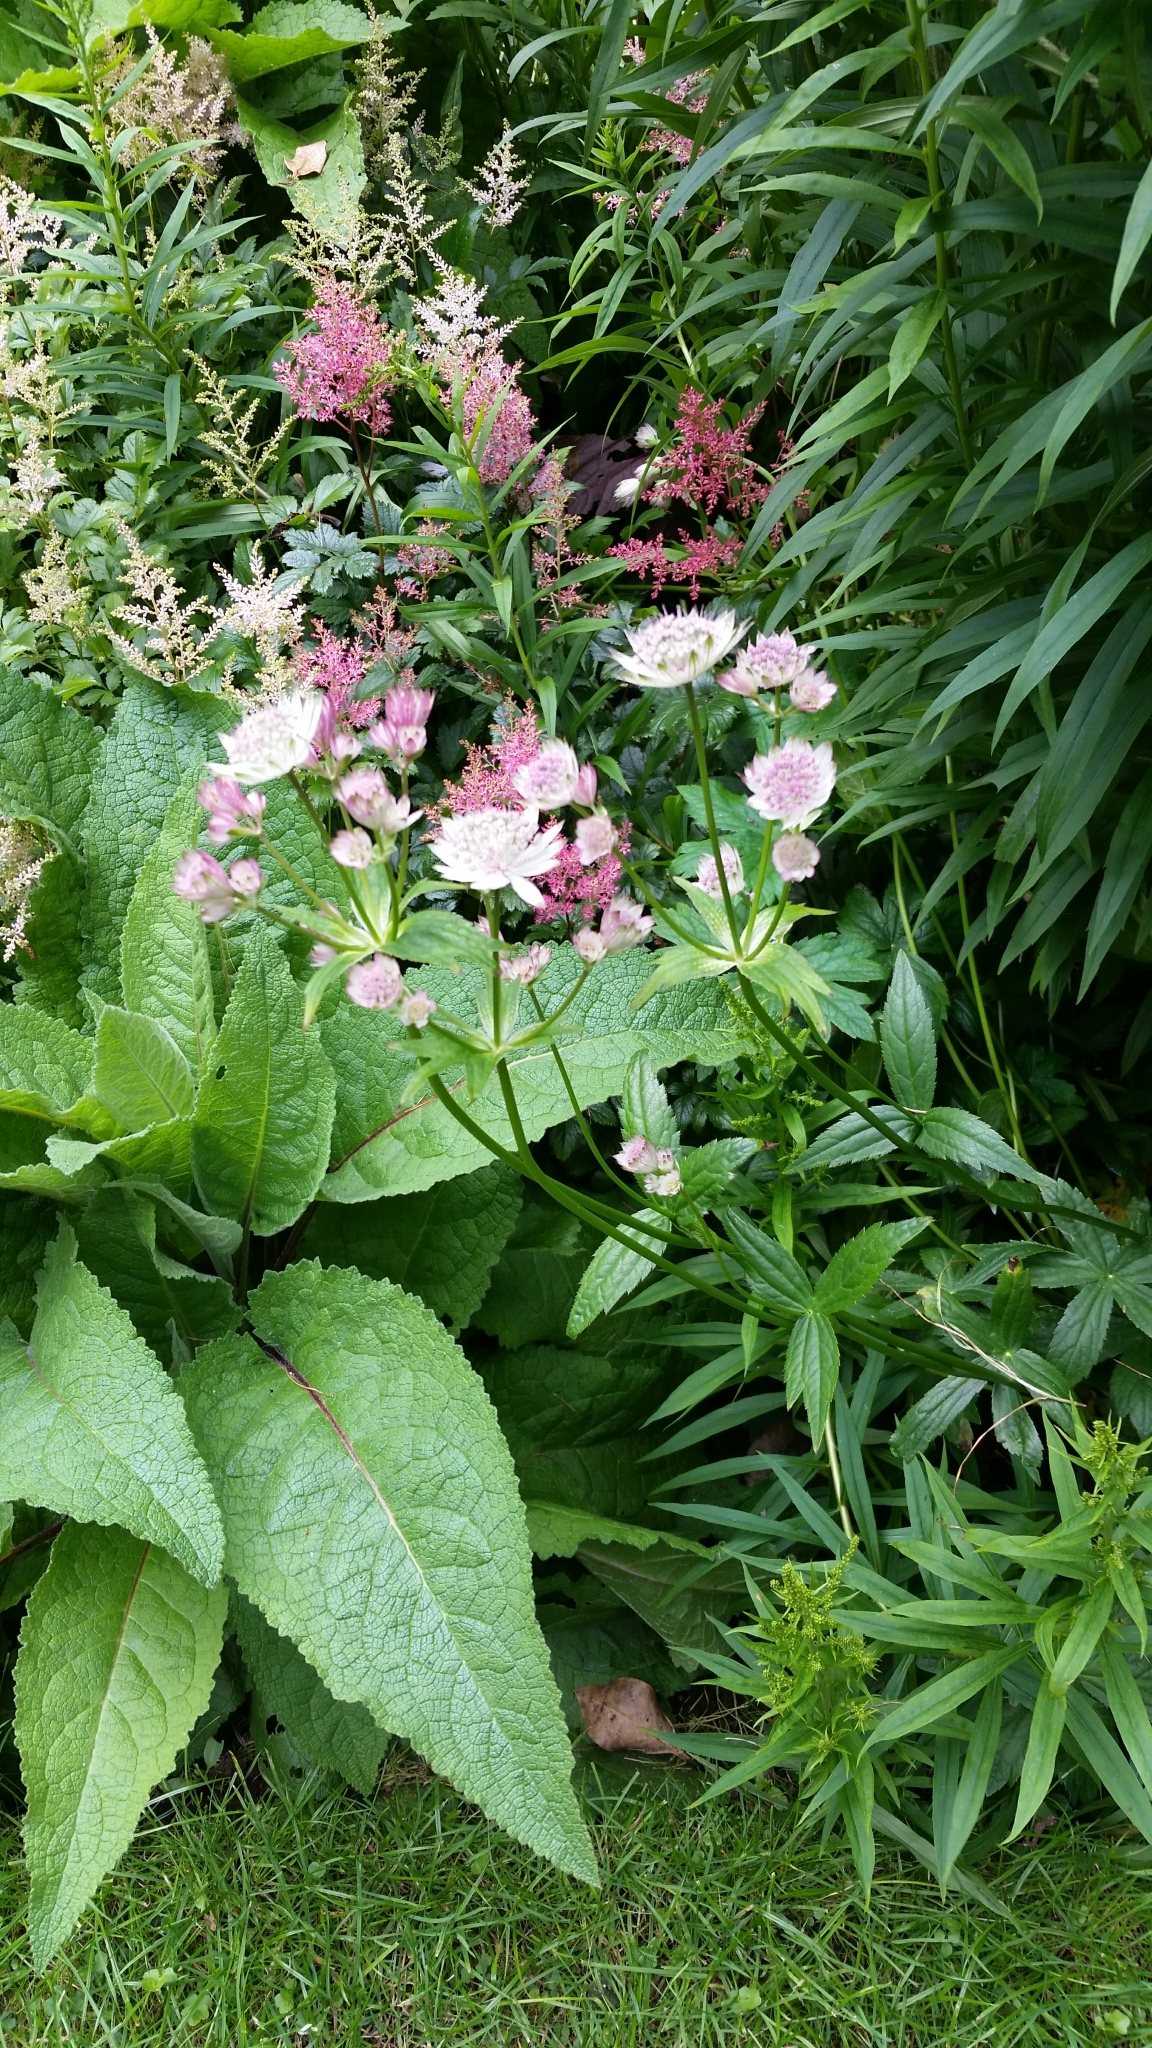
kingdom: Plantae
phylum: Tracheophyta
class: Magnoliopsida
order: Apiales
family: Apiaceae
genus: Astrantia
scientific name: Astrantia major
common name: Greater masterwort
